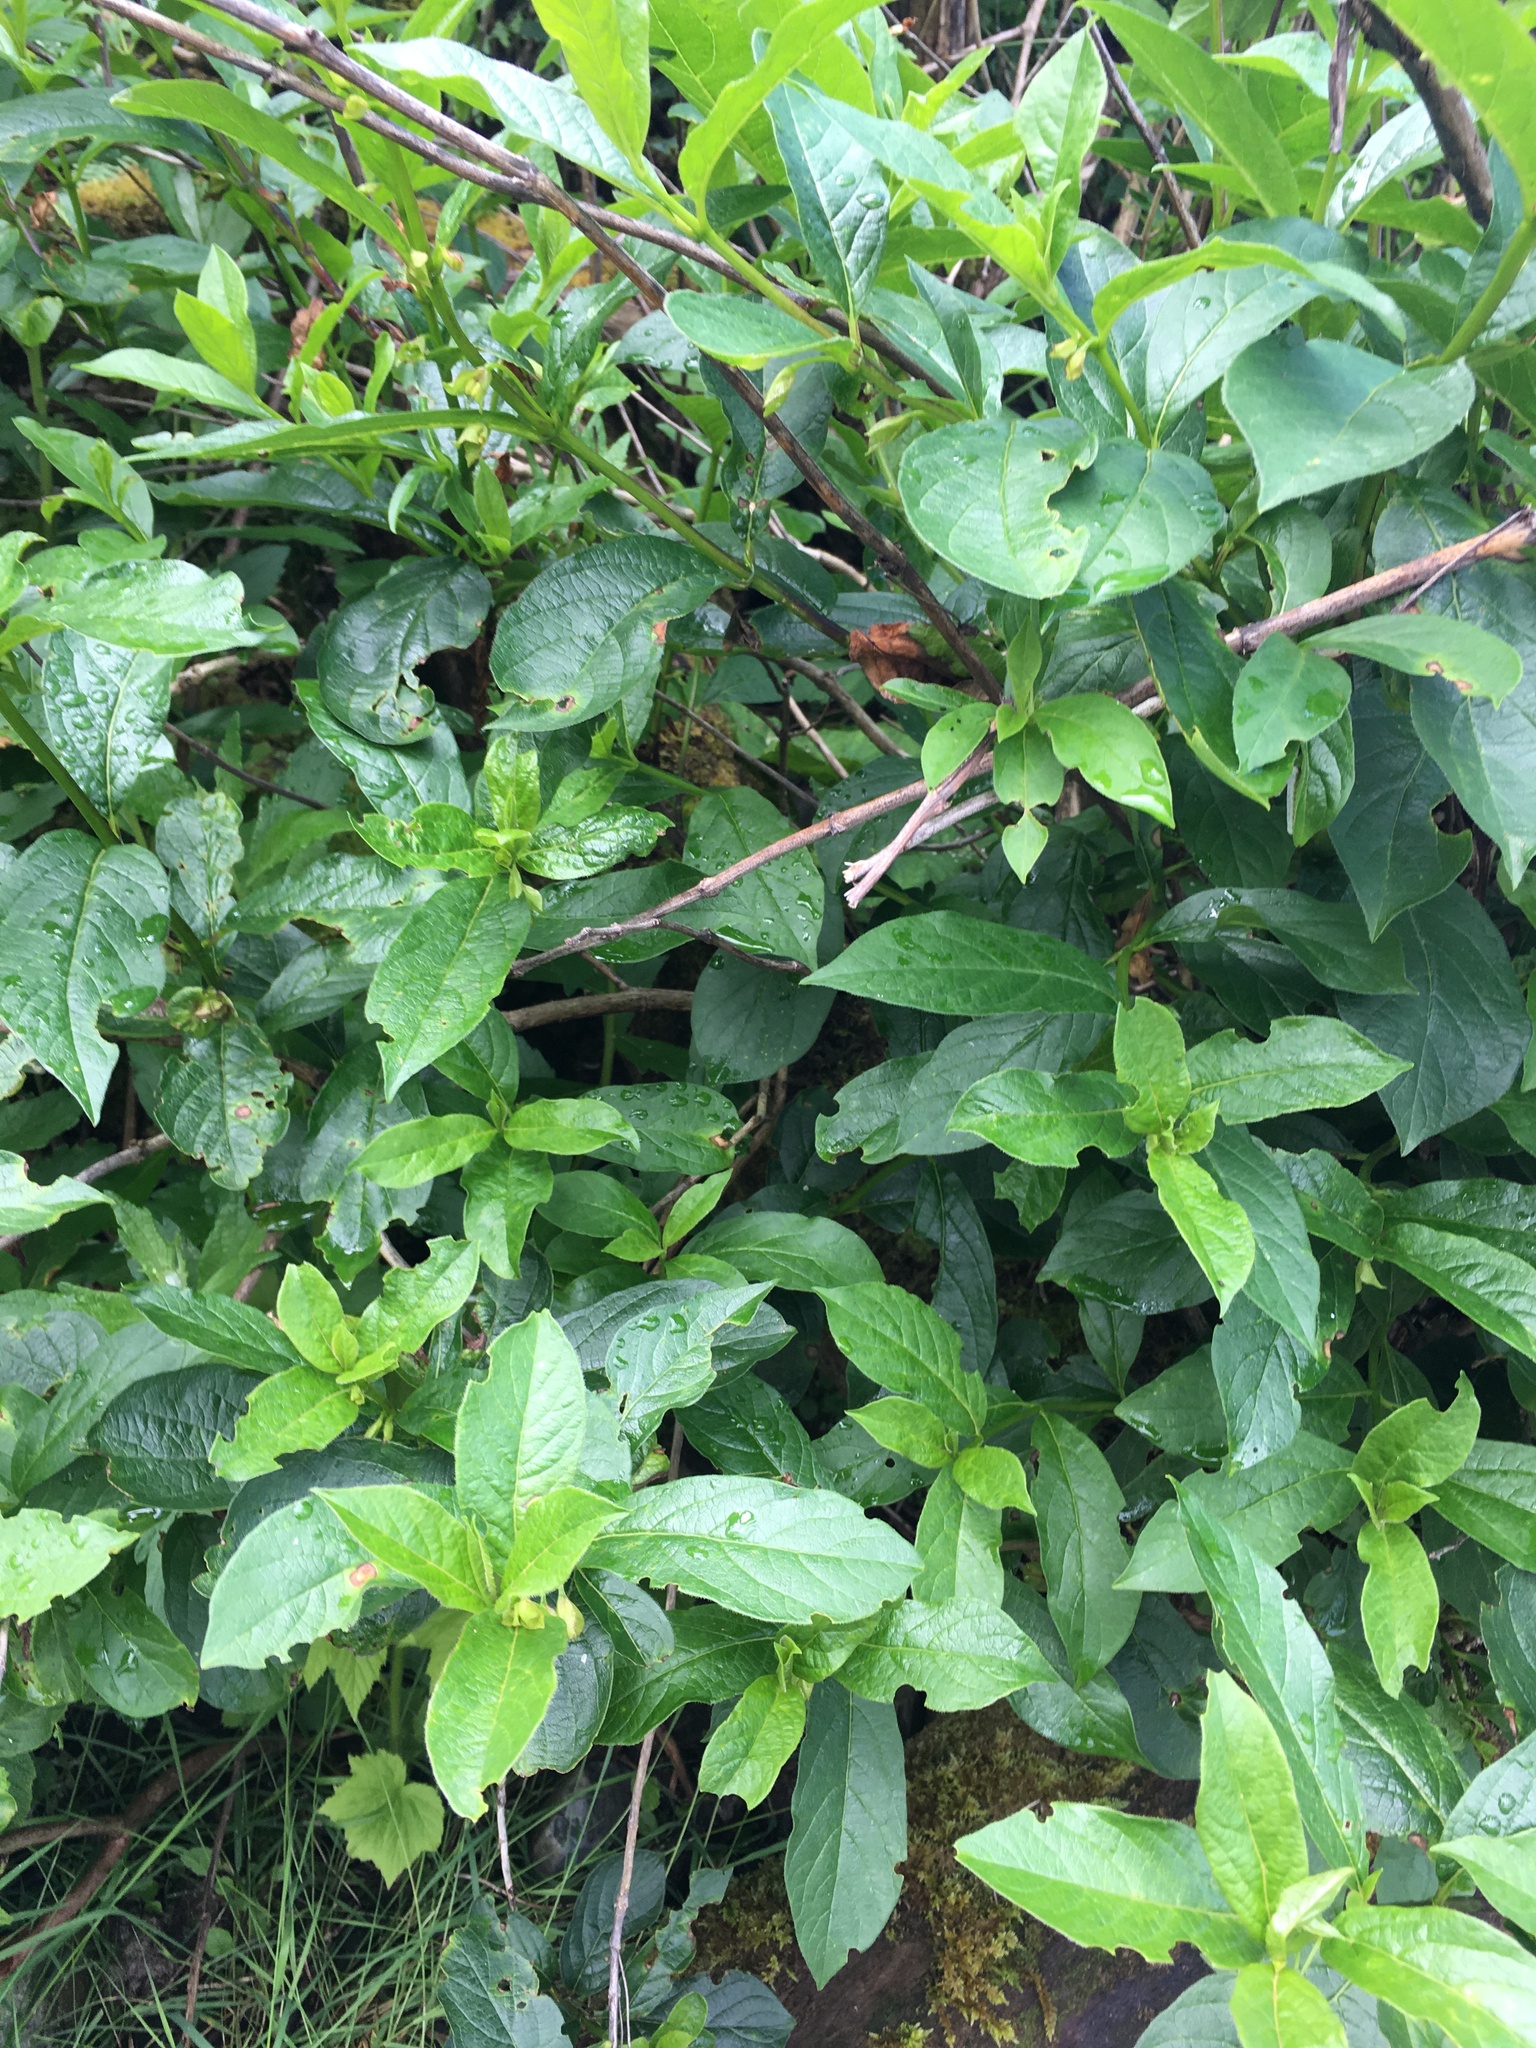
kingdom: Plantae
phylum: Tracheophyta
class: Magnoliopsida
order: Dipsacales
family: Caprifoliaceae
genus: Lonicera
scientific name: Lonicera involucrata
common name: Californian honeysuckle
